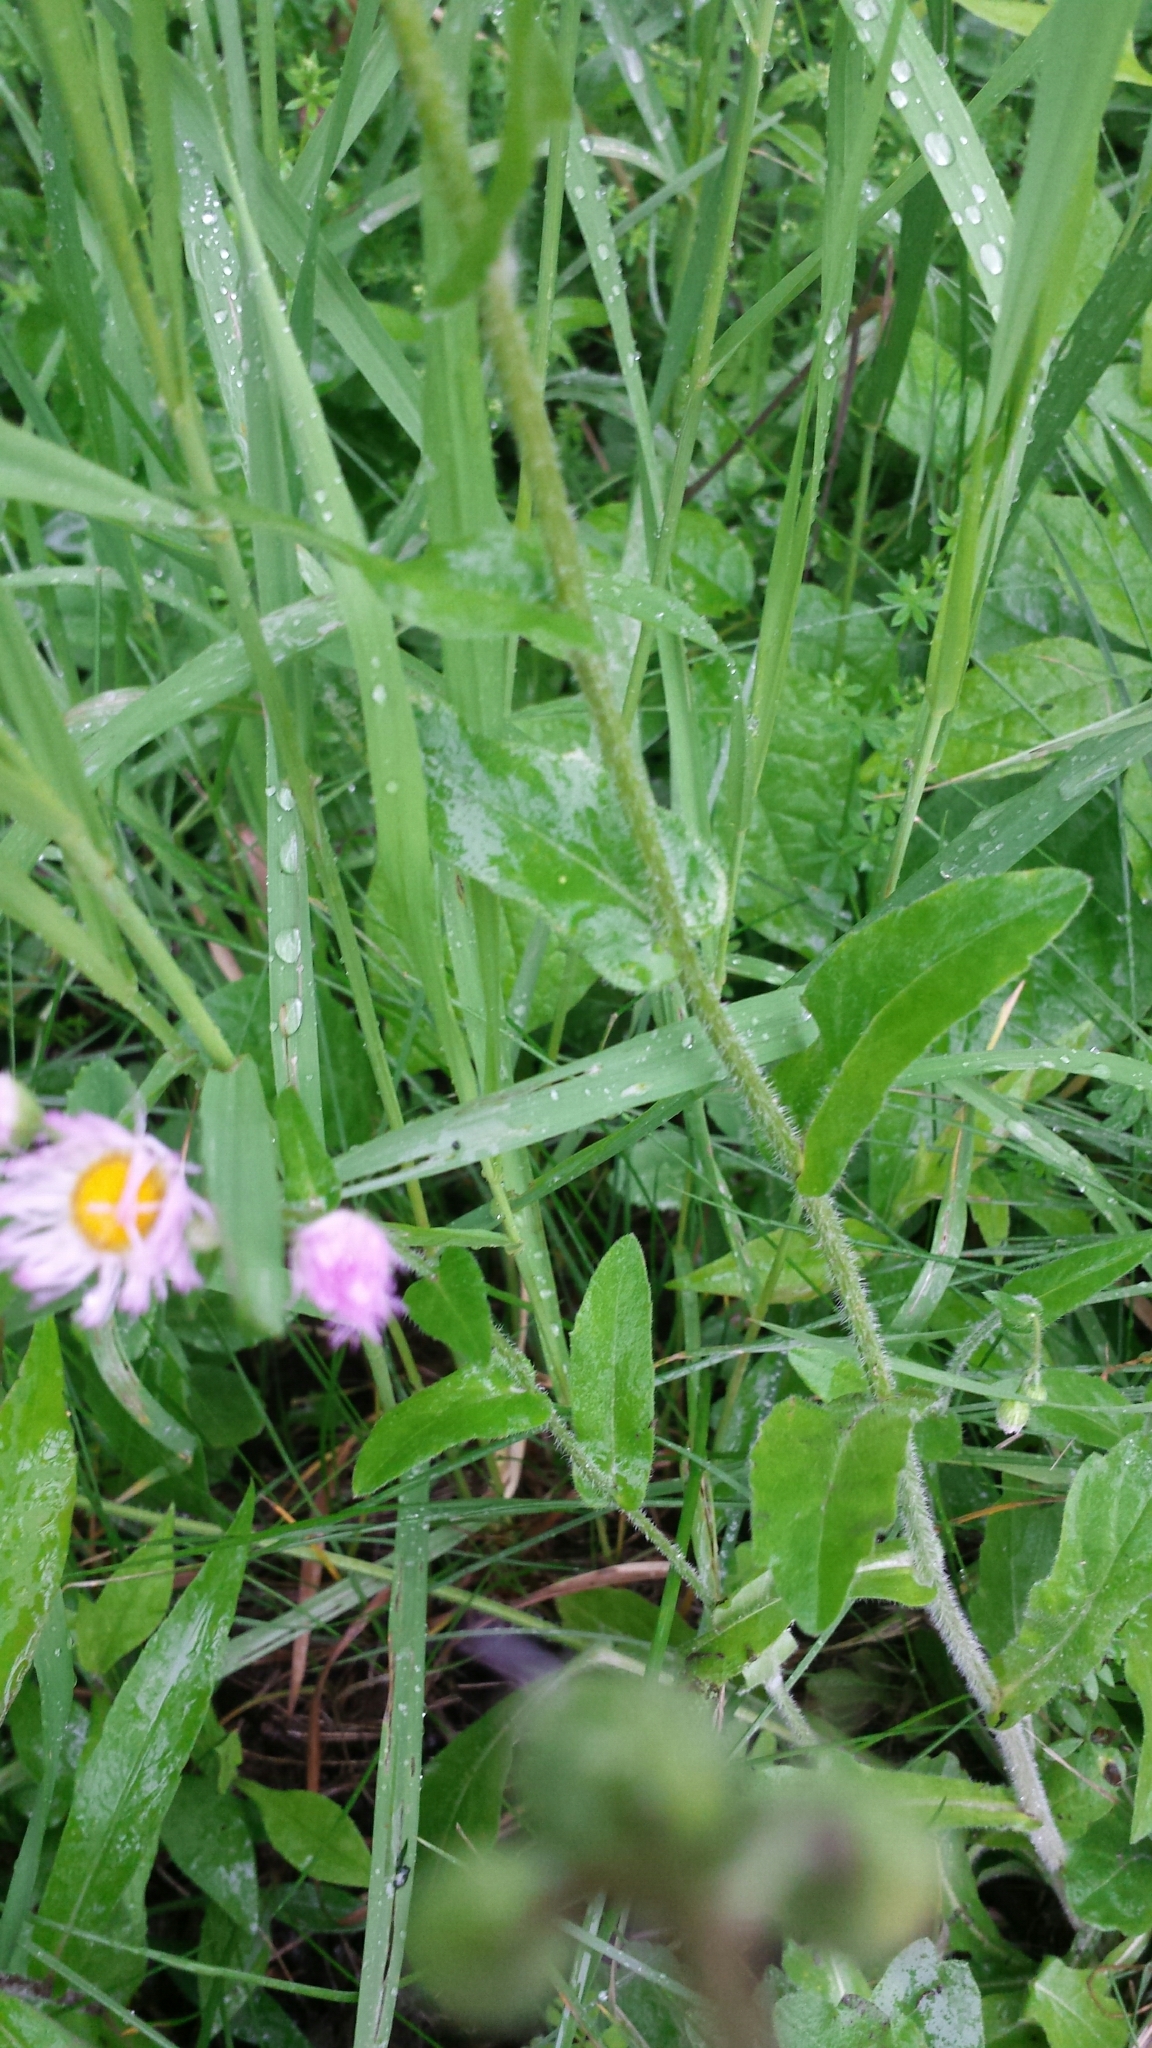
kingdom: Plantae
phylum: Tracheophyta
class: Magnoliopsida
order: Asterales
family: Asteraceae
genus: Erigeron
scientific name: Erigeron philadelphicus
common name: Robin's-plantain
